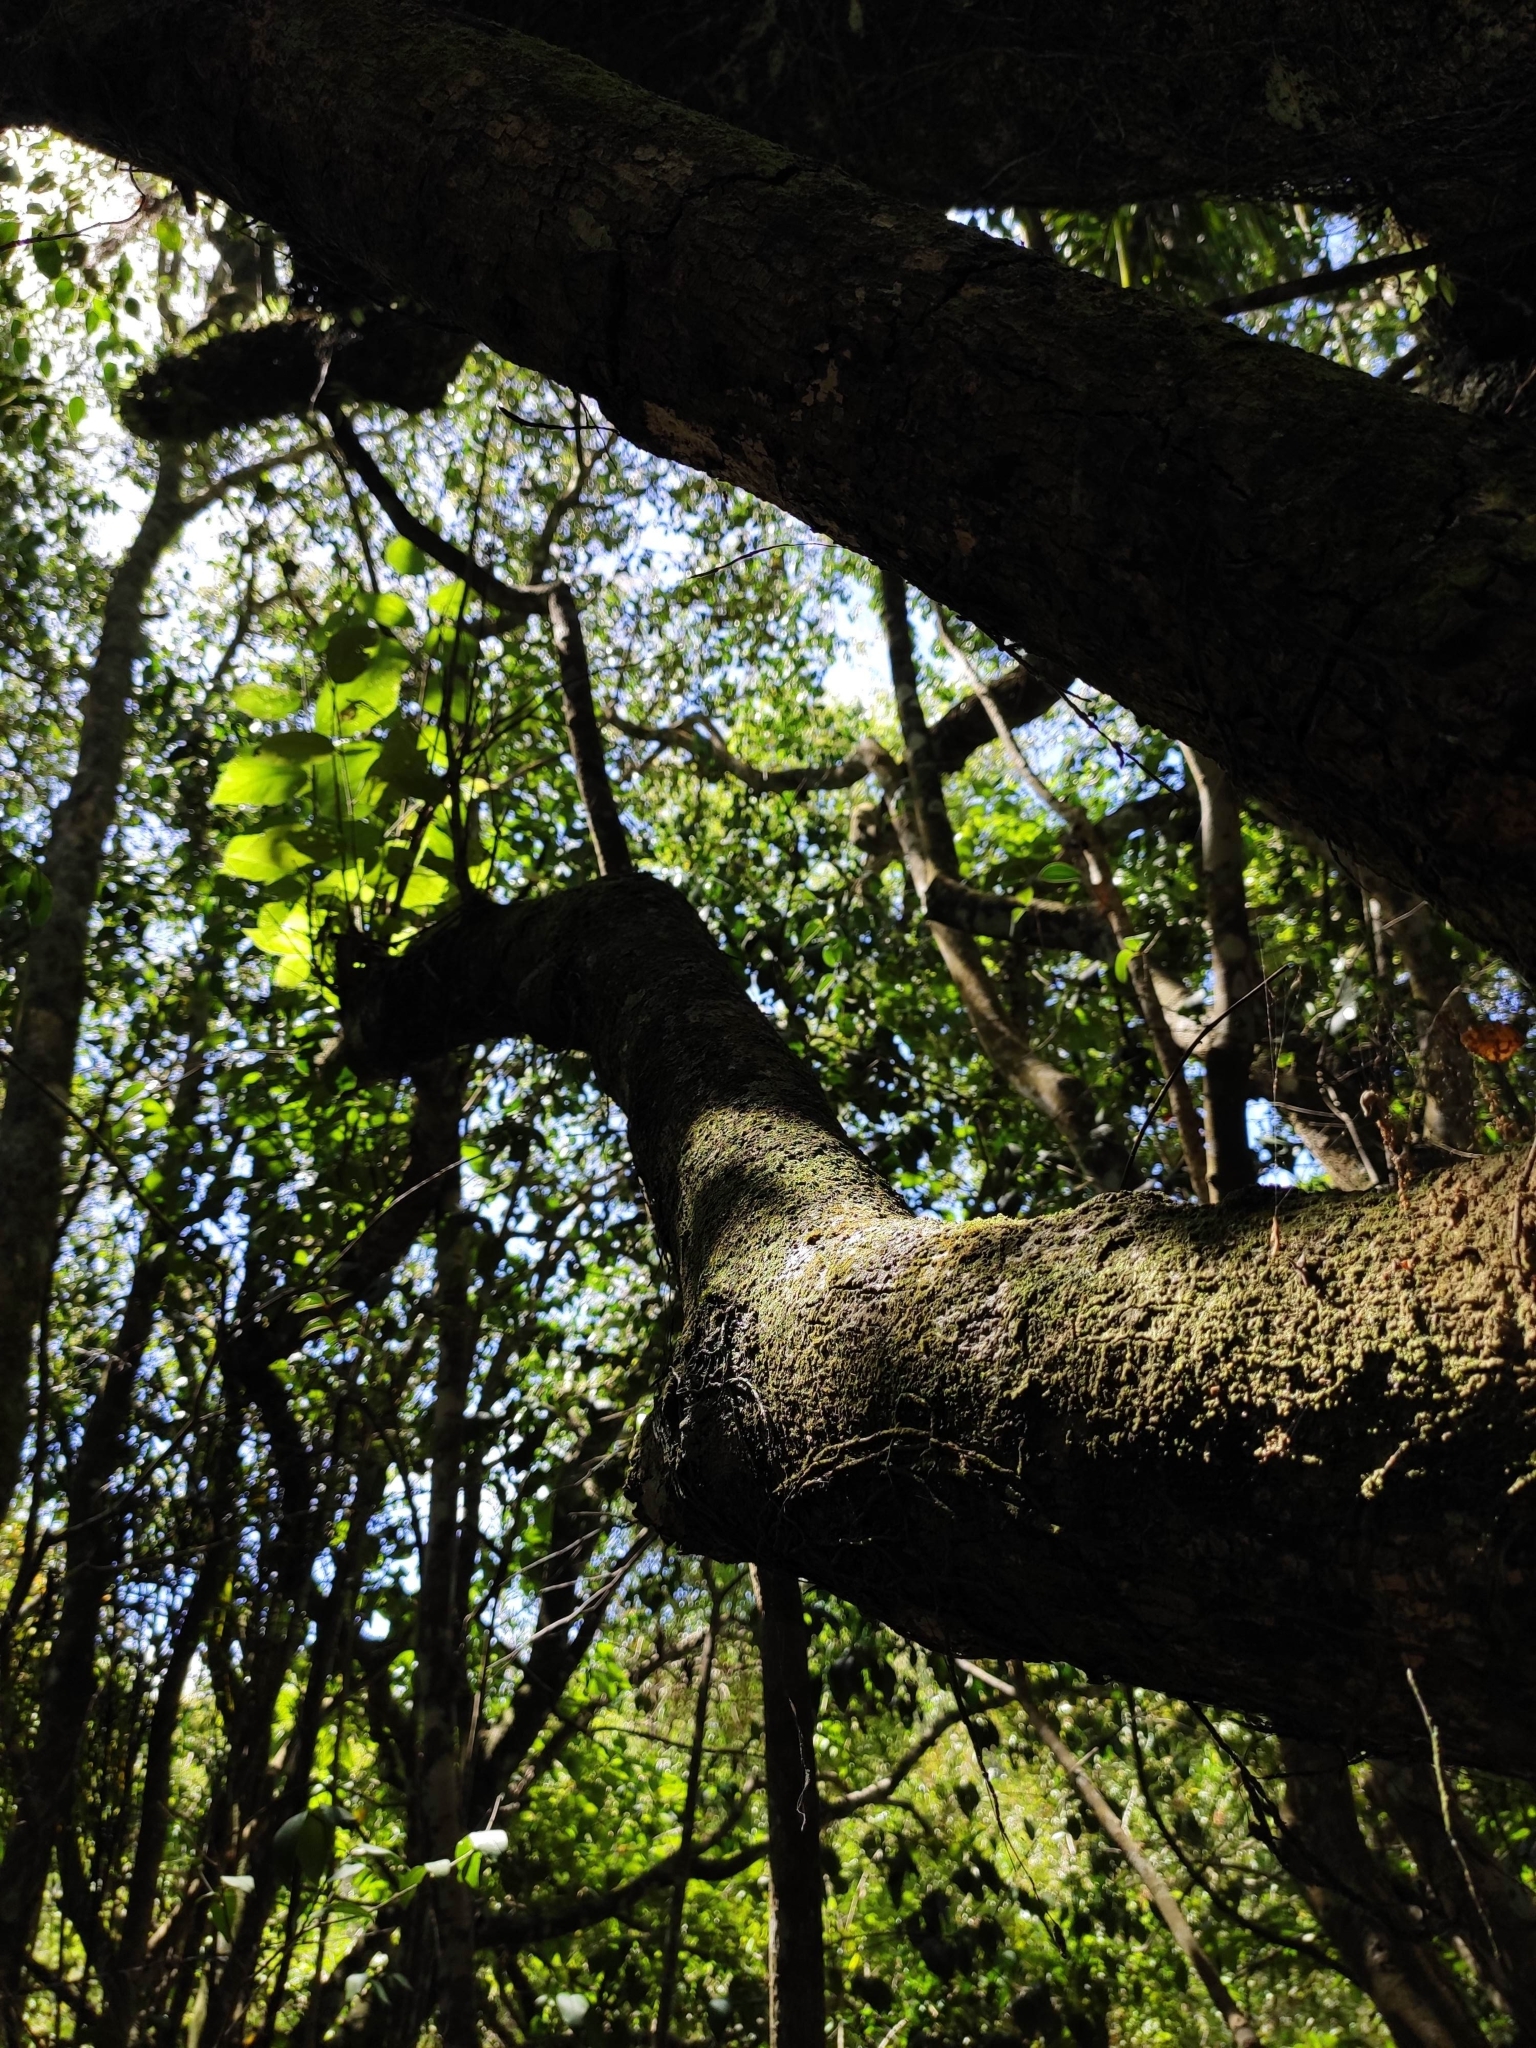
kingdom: Plantae
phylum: Tracheophyta
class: Magnoliopsida
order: Malvales
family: Malvaceae
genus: Luehea
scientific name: Luehea divaricata
